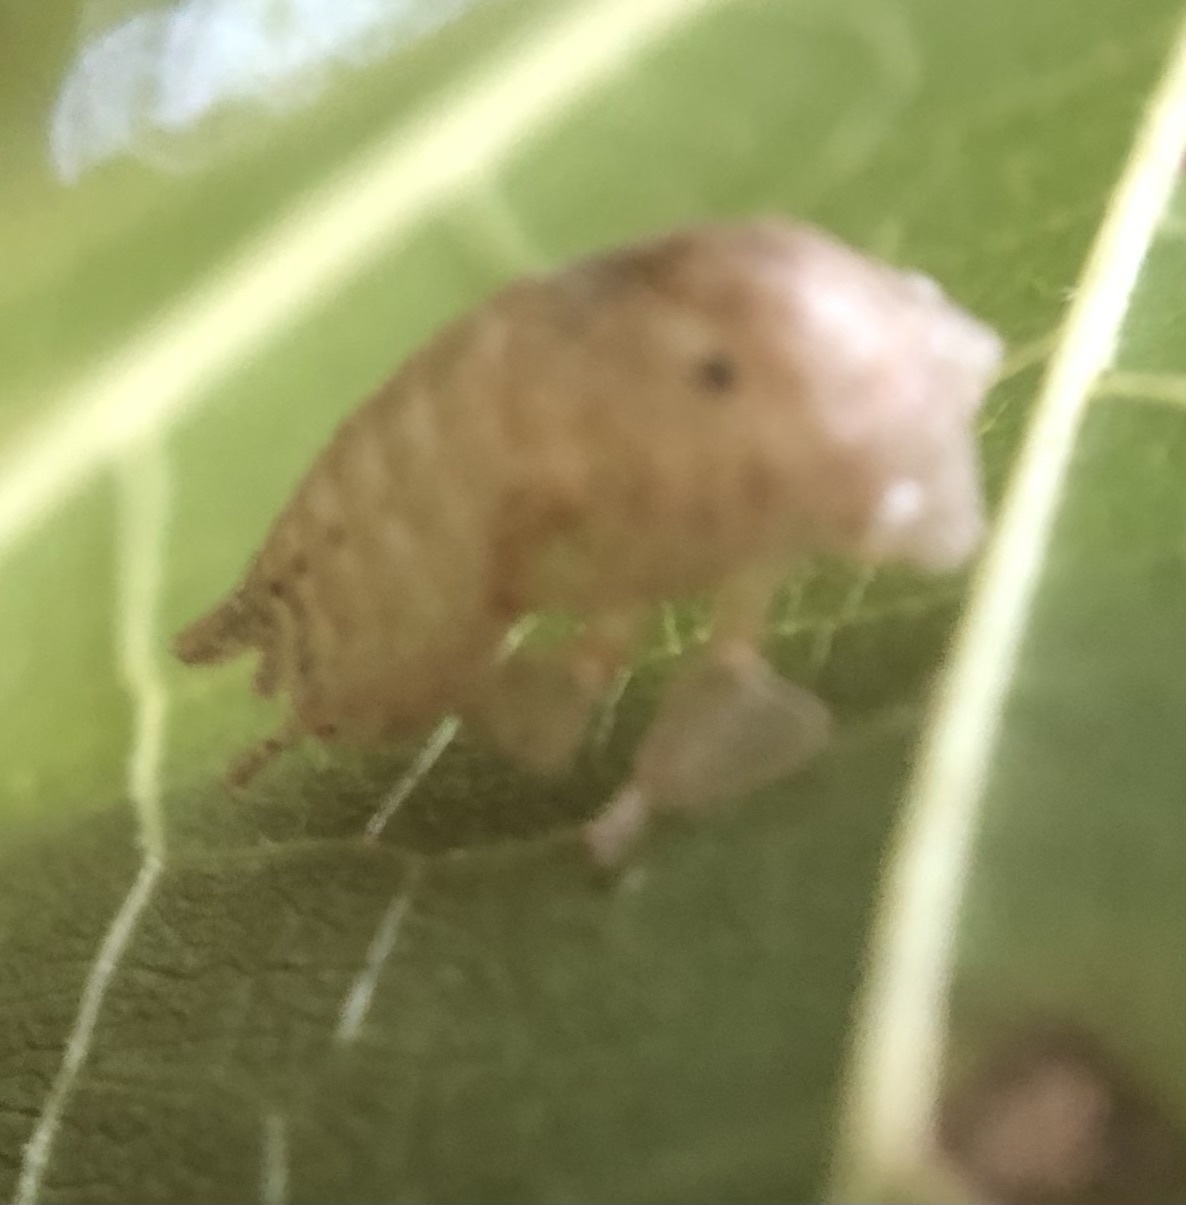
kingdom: Animalia
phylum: Arthropoda
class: Insecta
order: Hemiptera
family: Membracidae
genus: Hebetica
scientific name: Hebetica
